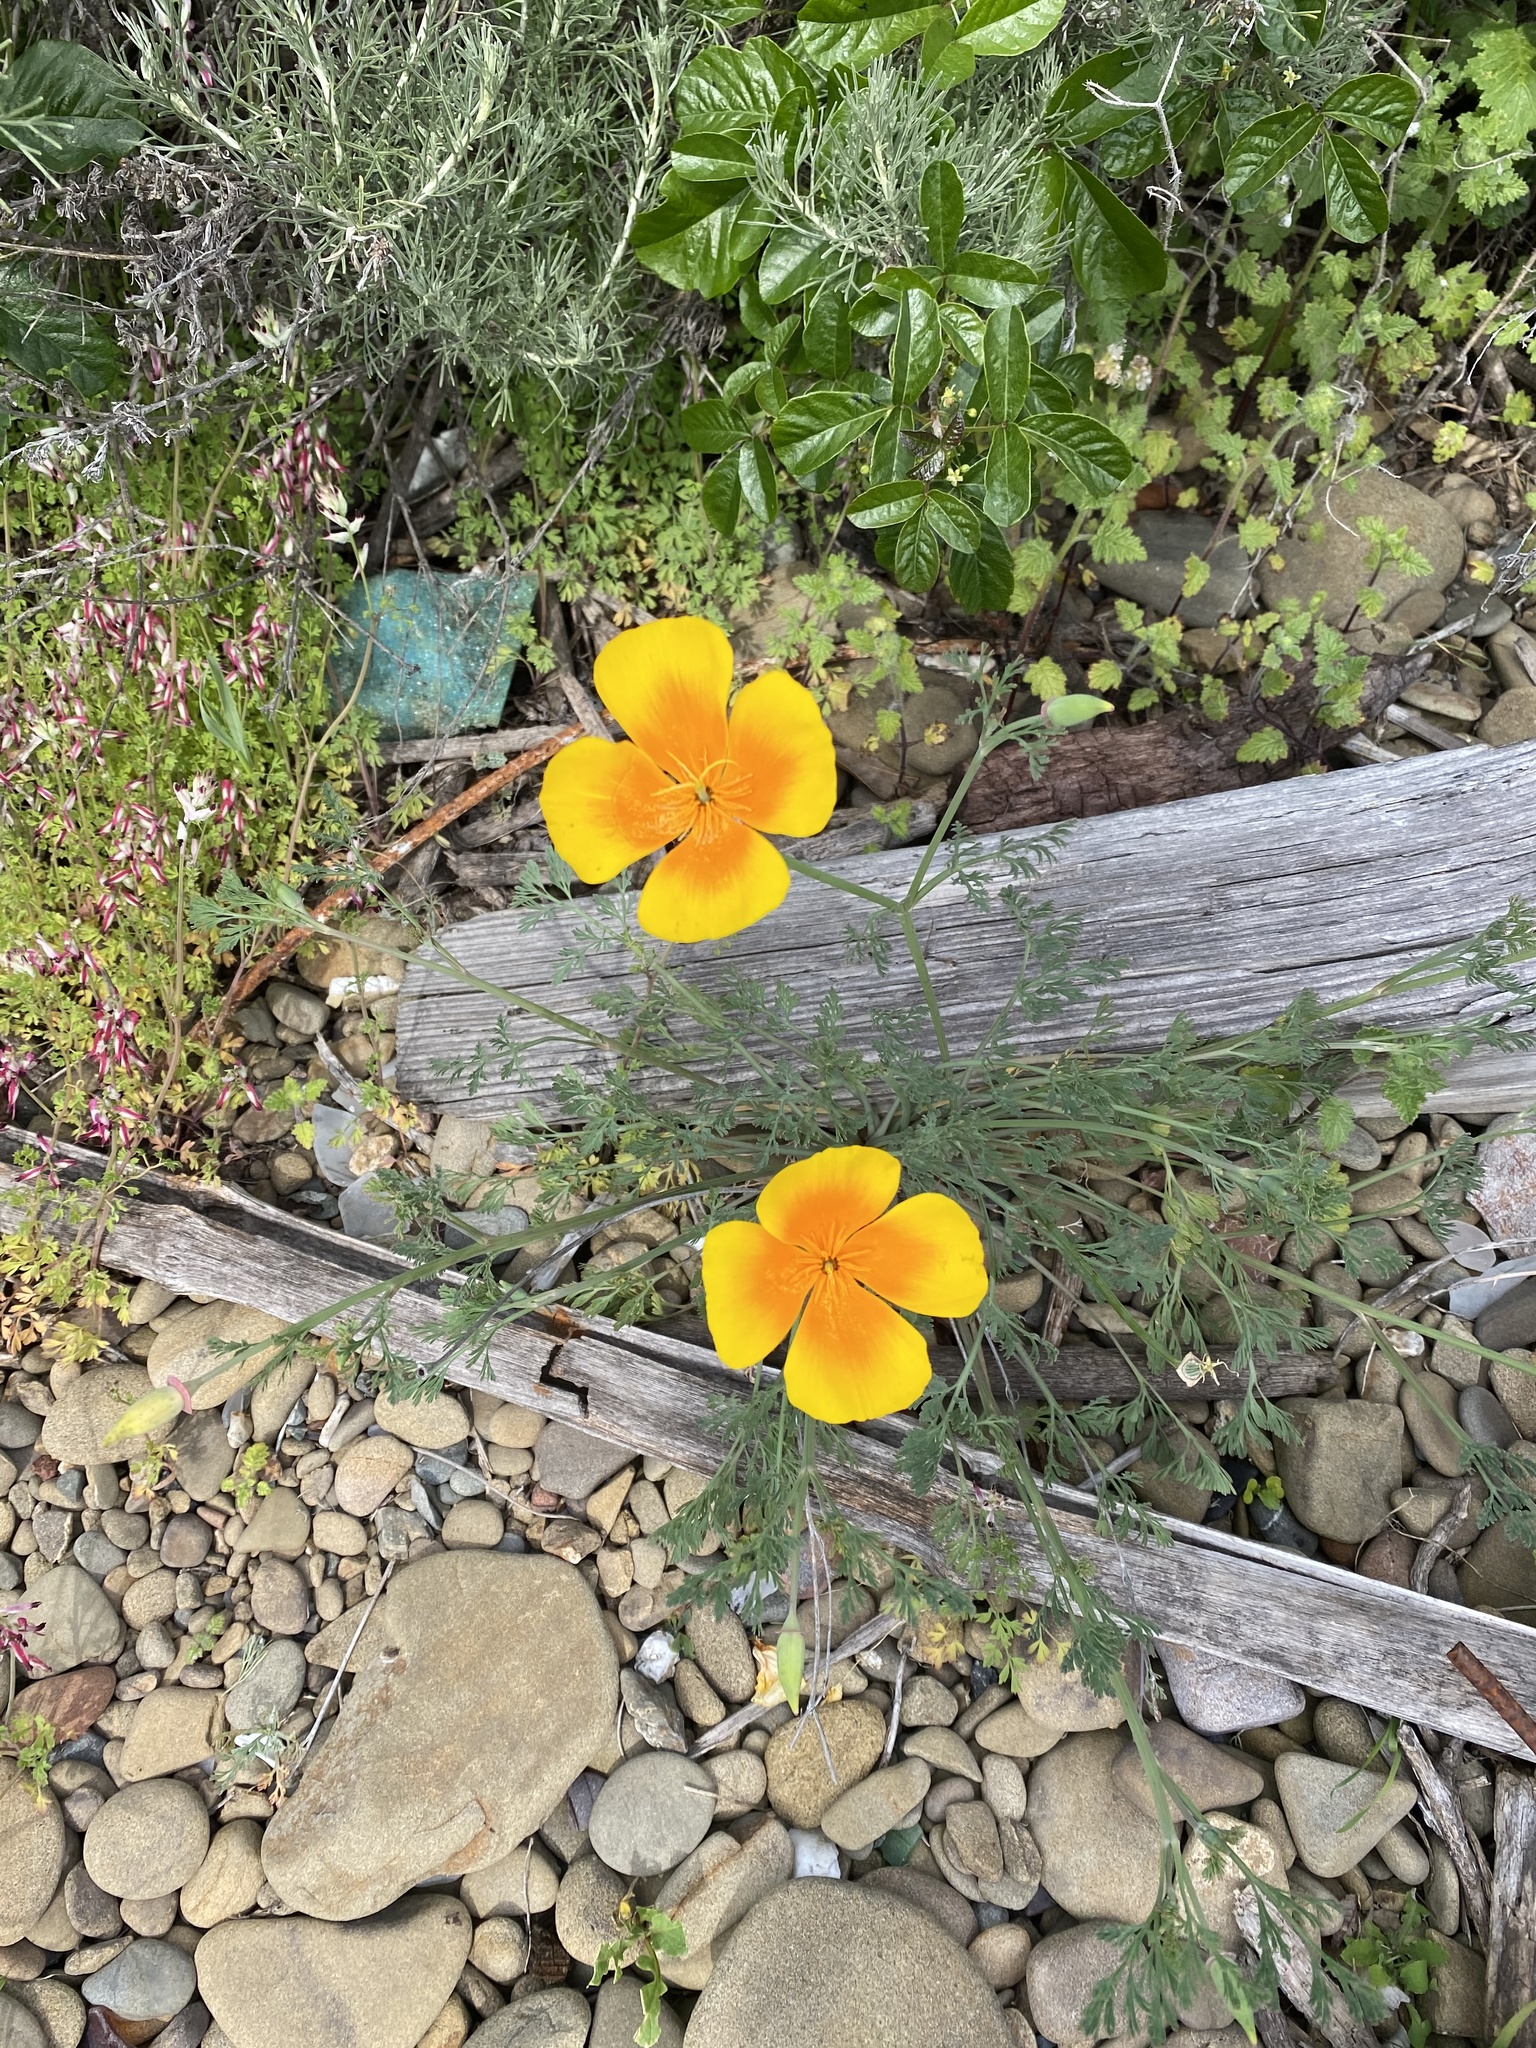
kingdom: Plantae
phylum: Tracheophyta
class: Magnoliopsida
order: Ranunculales
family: Papaveraceae
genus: Eschscholzia
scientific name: Eschscholzia californica
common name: California poppy
